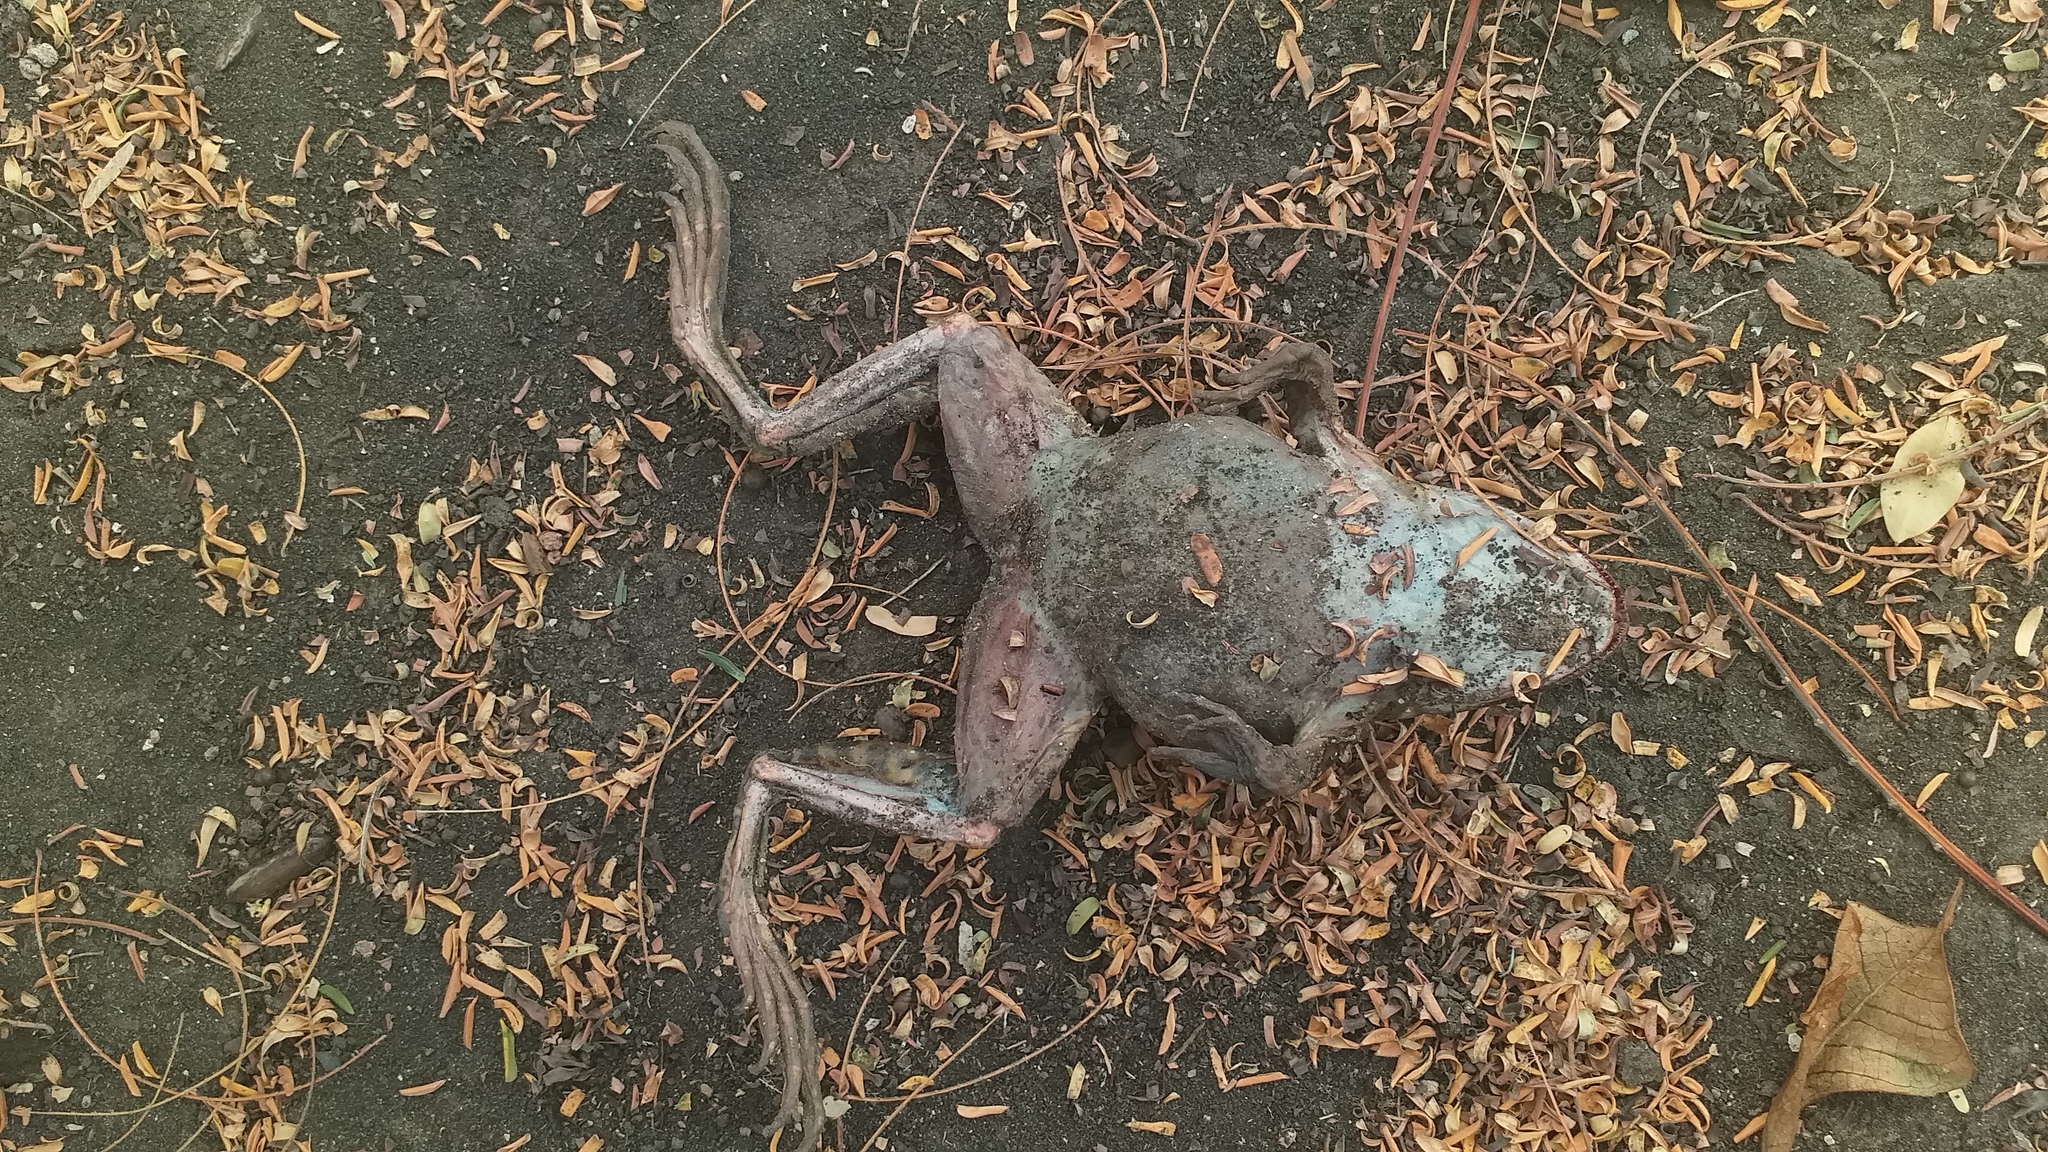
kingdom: Animalia
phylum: Chordata
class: Amphibia
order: Anura
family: Dicroglossidae
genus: Hoplobatrachus
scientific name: Hoplobatrachus occipitalis
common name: Eastern groove-crowned bullfrog
